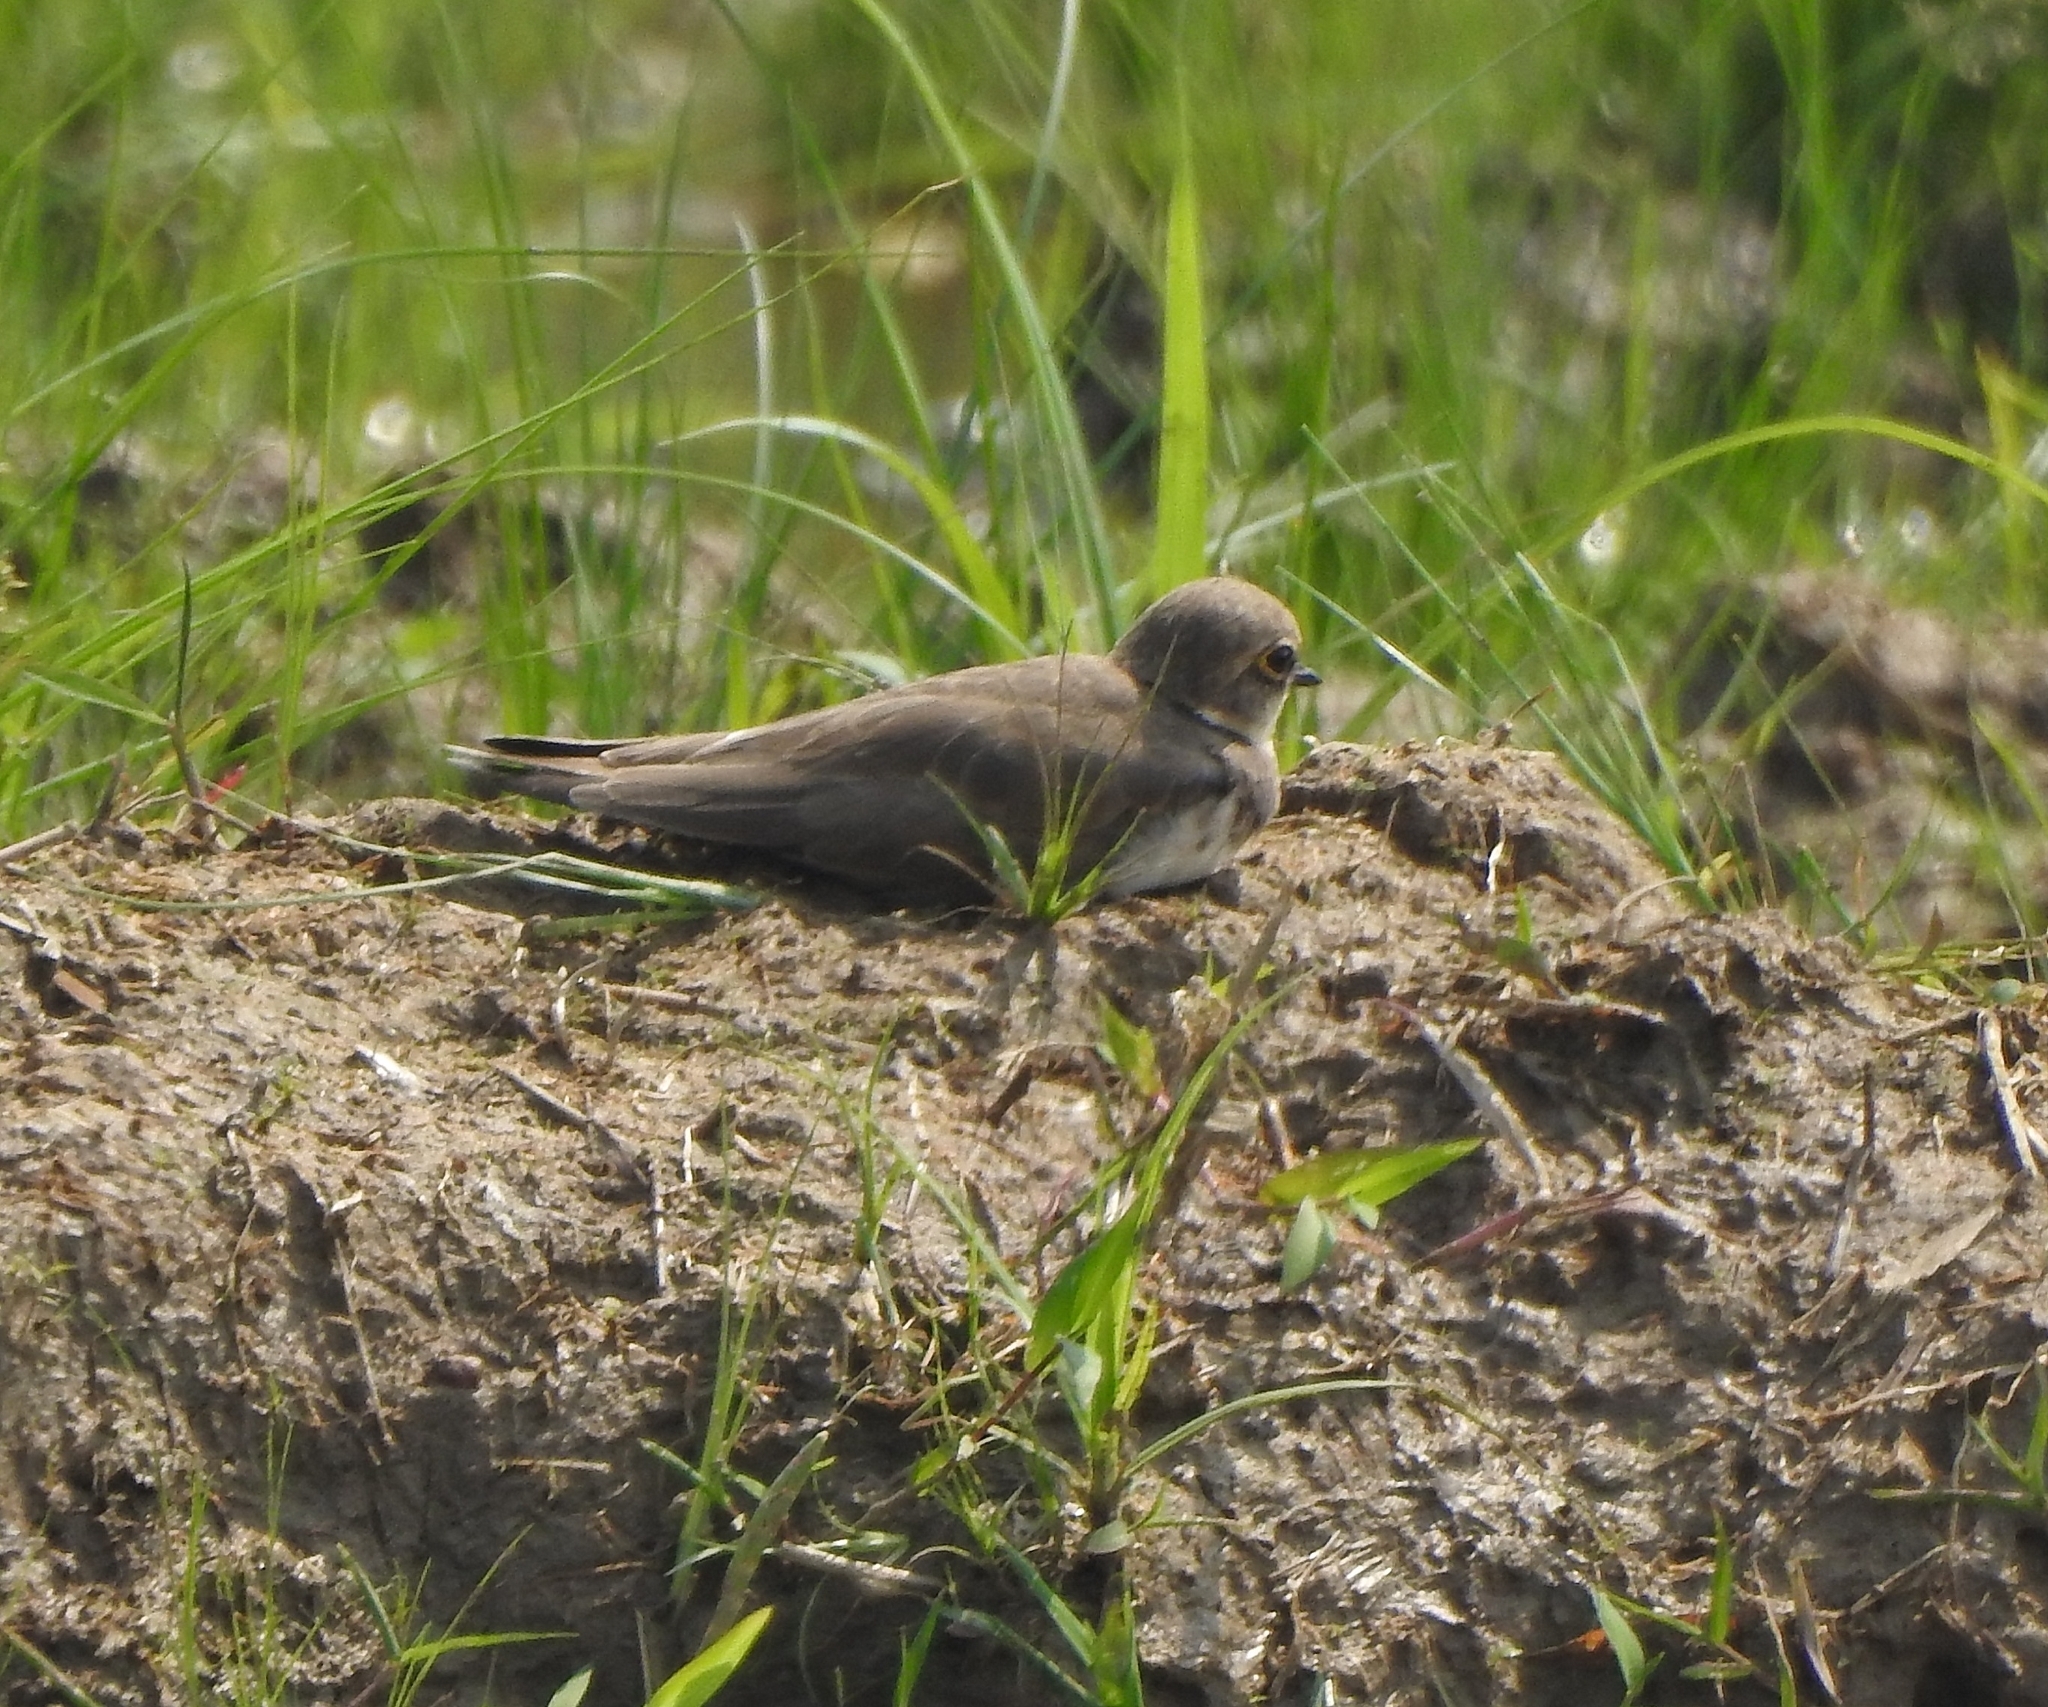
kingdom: Animalia
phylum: Chordata
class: Aves
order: Charadriiformes
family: Charadriidae
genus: Charadrius
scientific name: Charadrius dubius
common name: Little ringed plover
